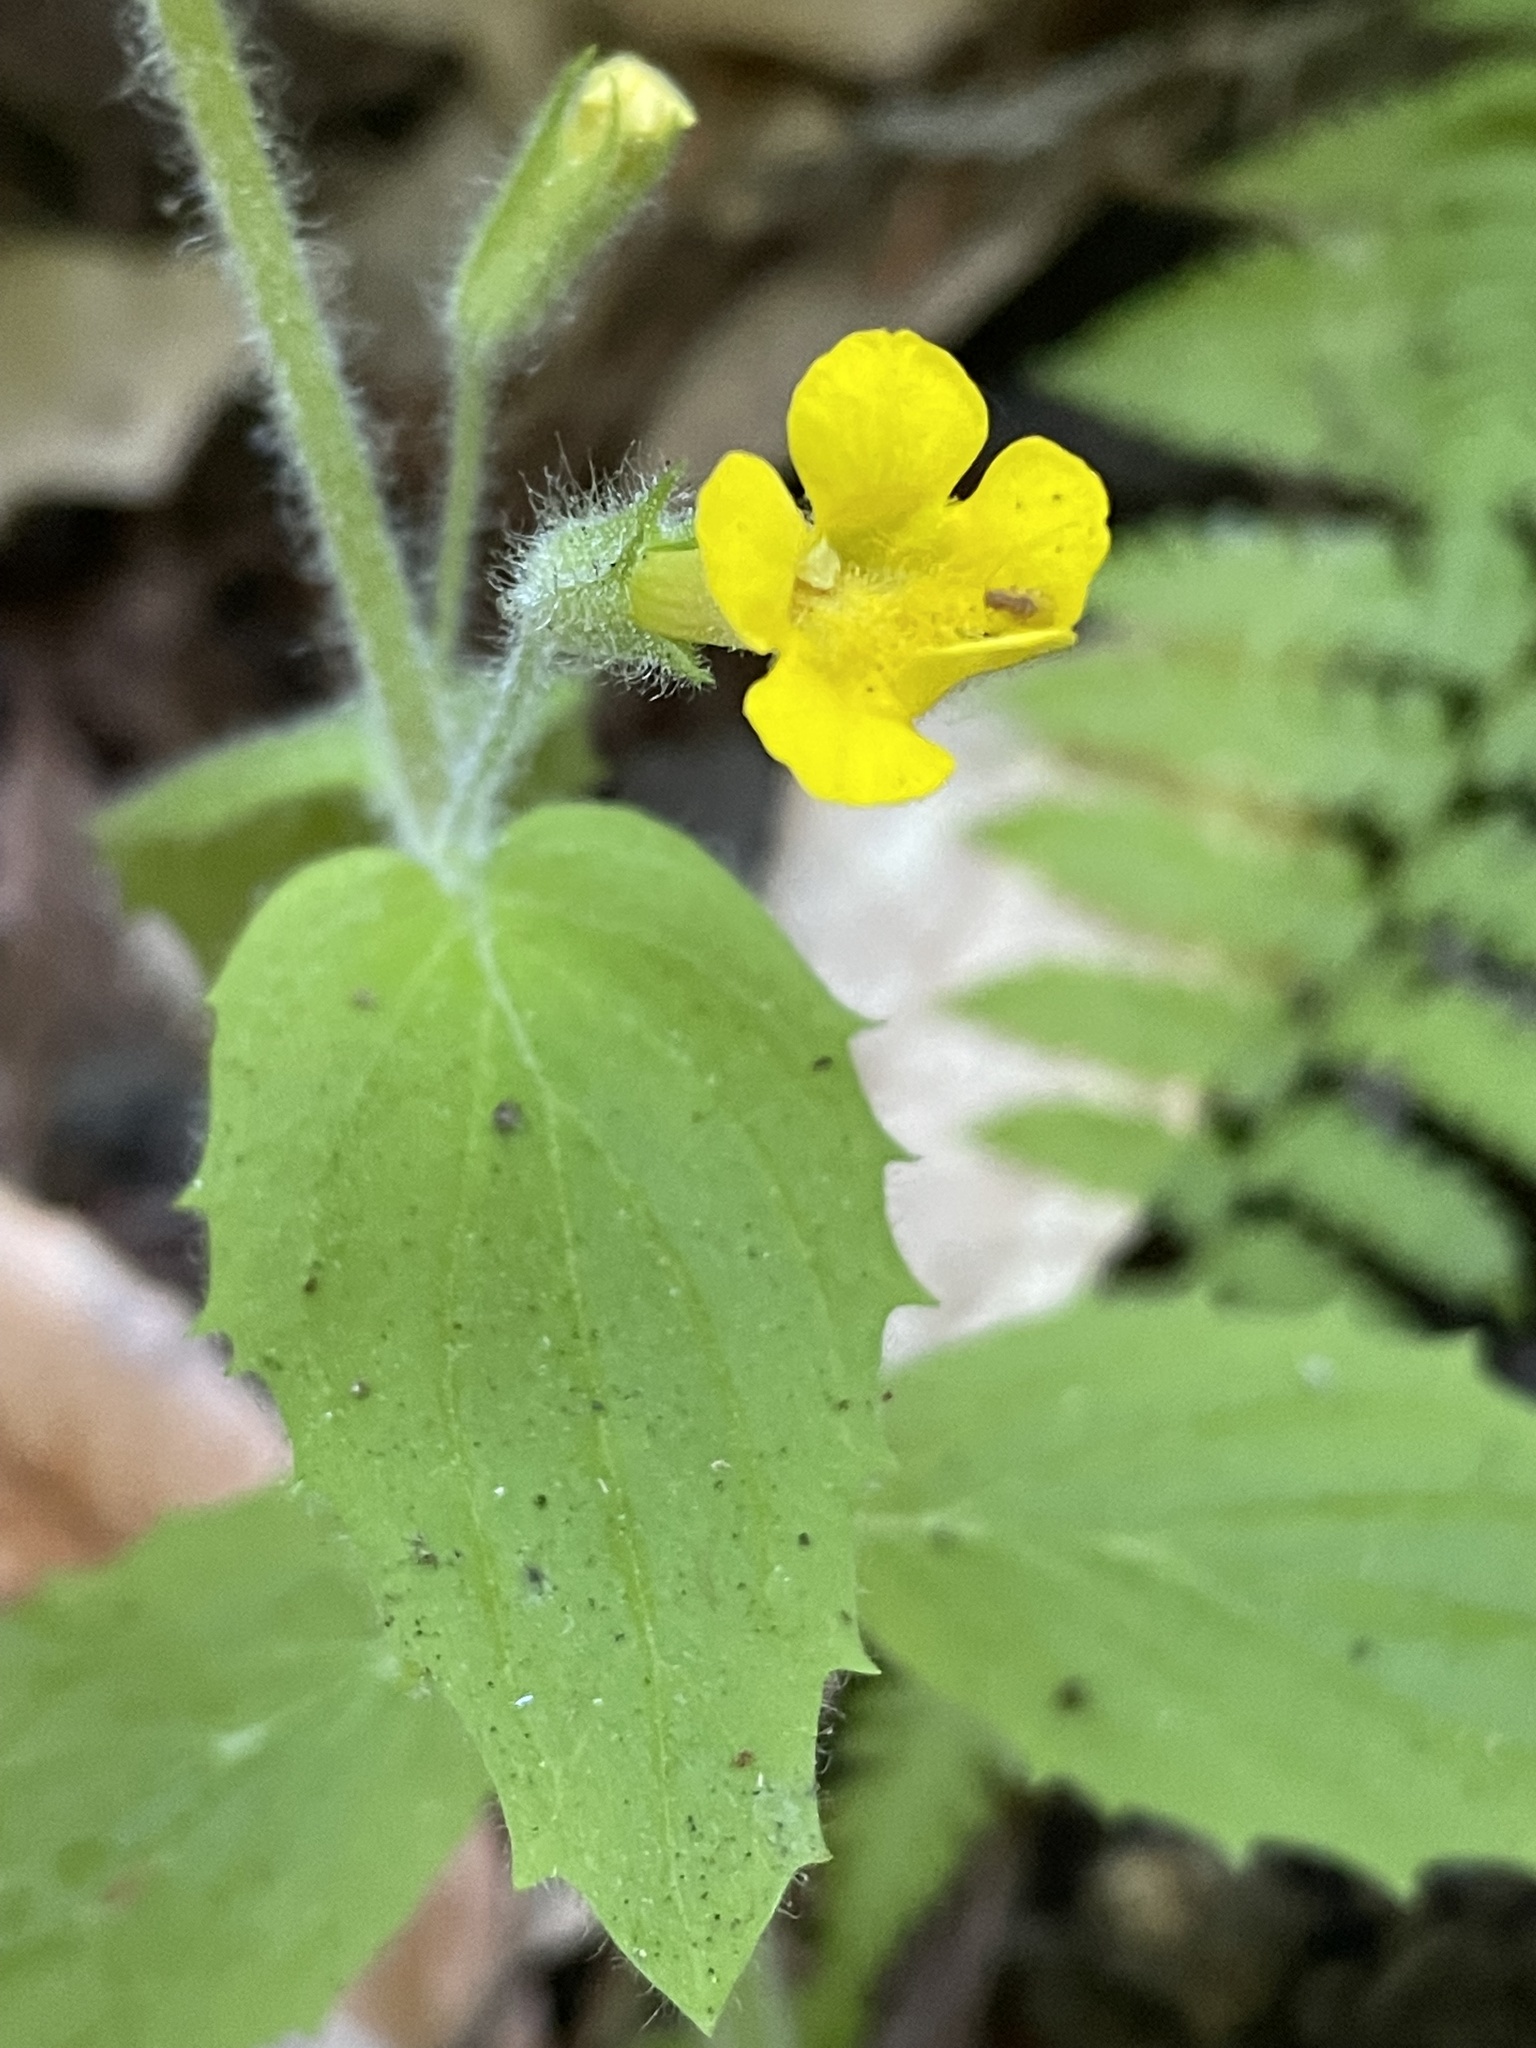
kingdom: Plantae
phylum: Tracheophyta
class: Magnoliopsida
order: Lamiales
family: Phrymaceae
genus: Erythranthe
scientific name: Erythranthe ptilota
